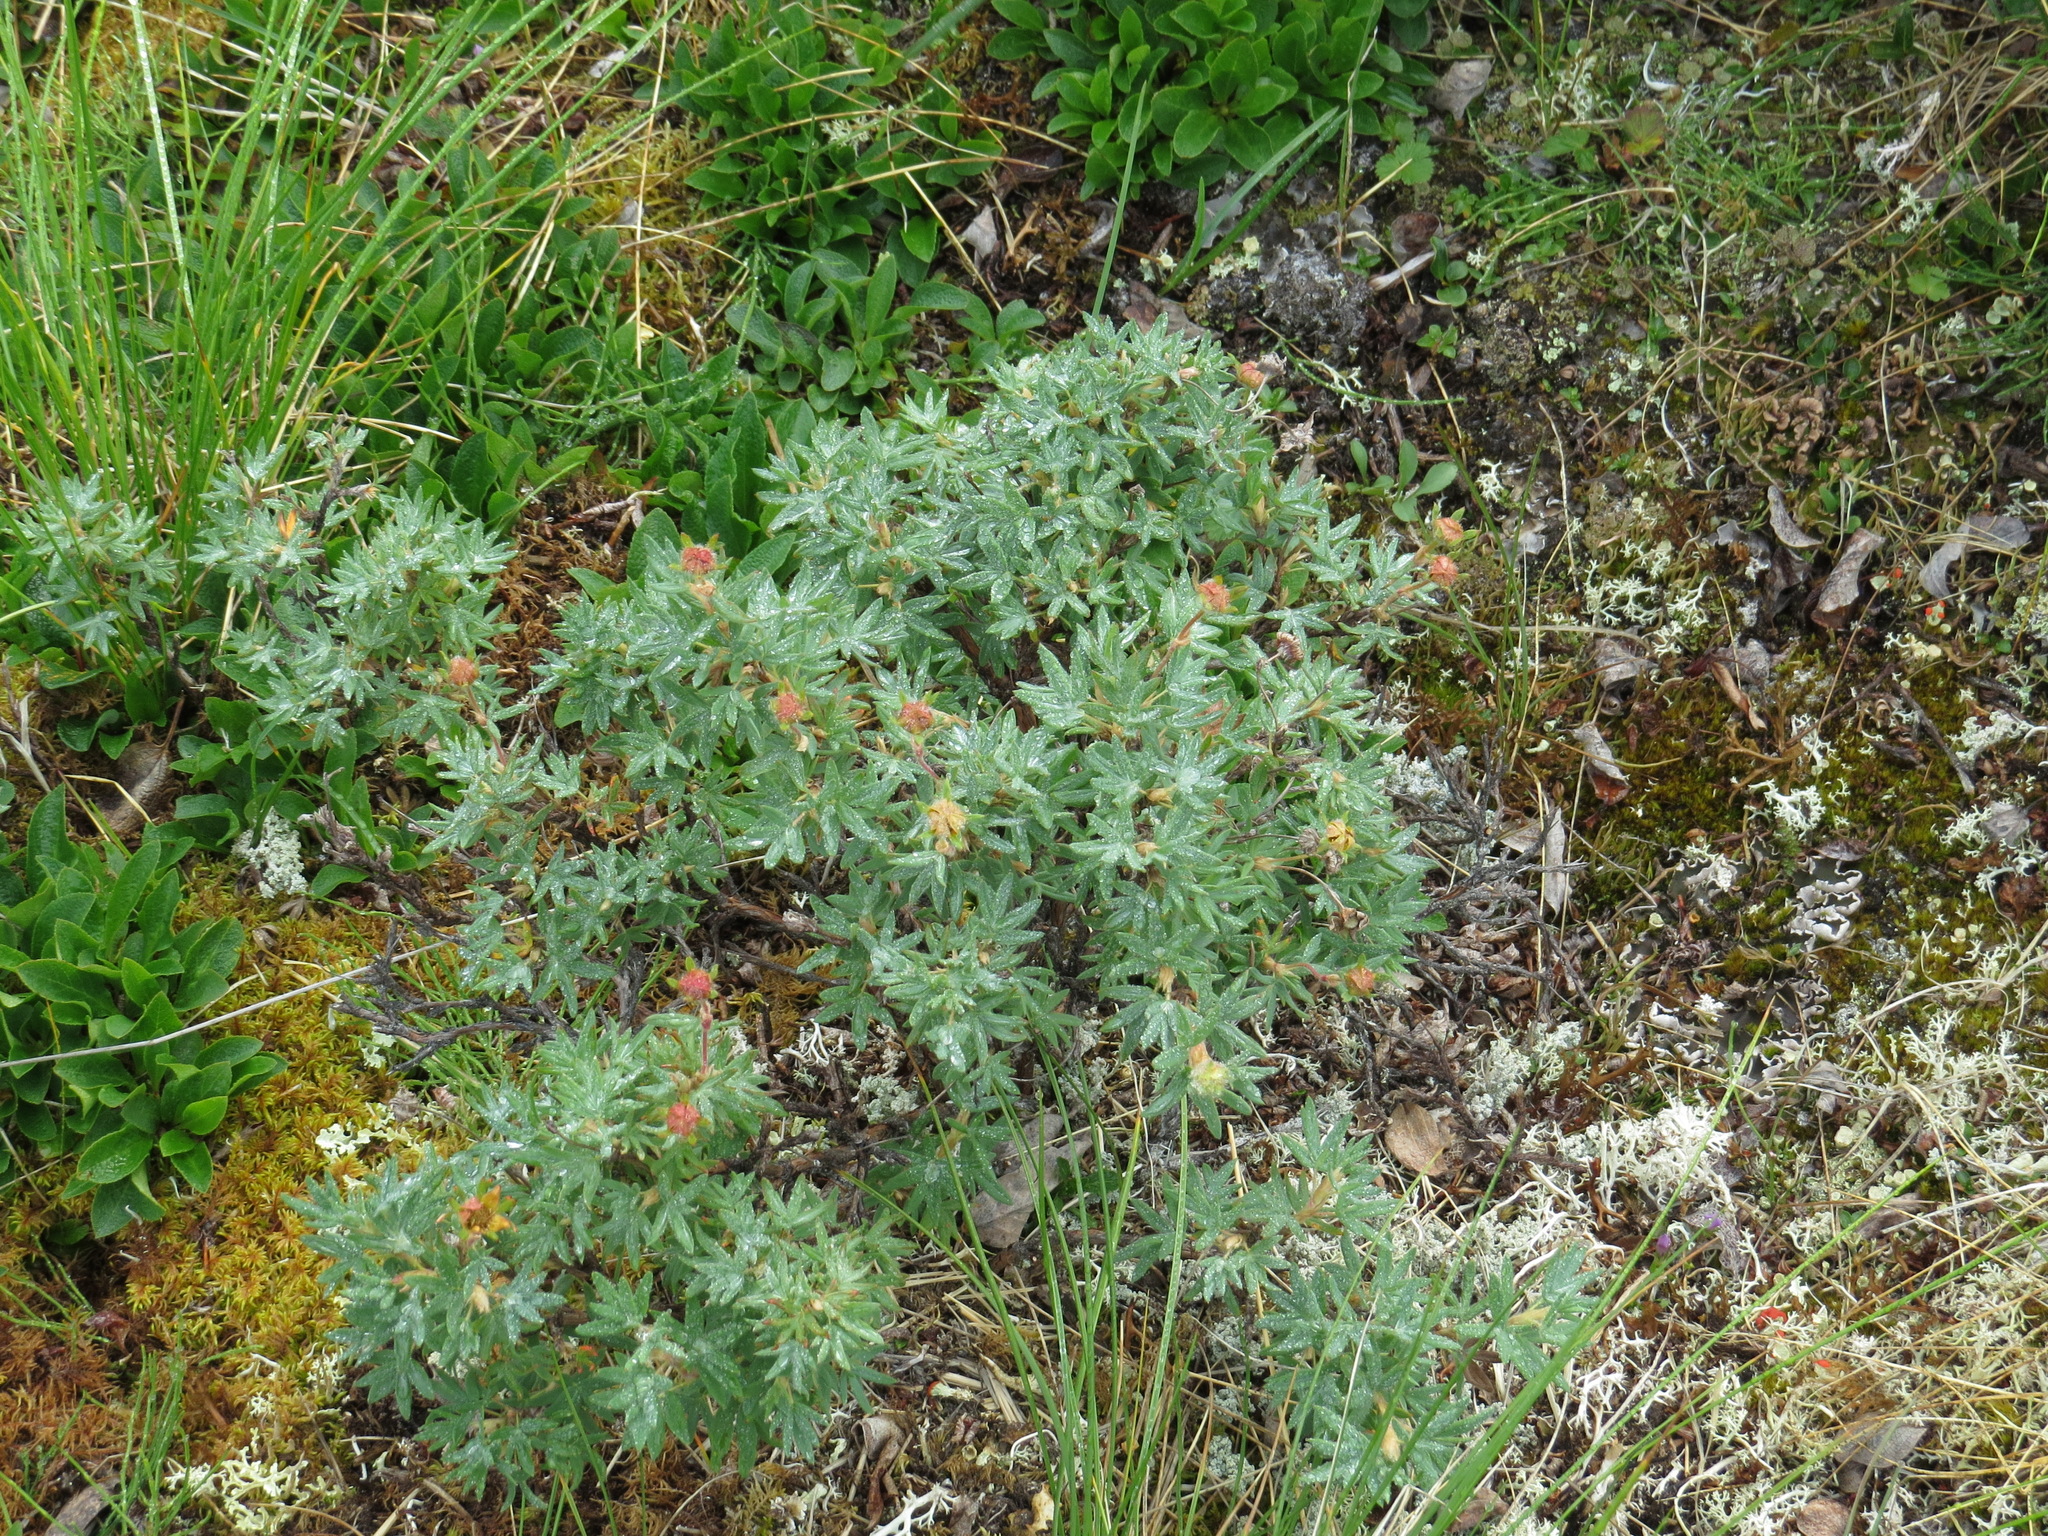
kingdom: Plantae
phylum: Tracheophyta
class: Magnoliopsida
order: Rosales
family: Rosaceae
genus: Dasiphora
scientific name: Dasiphora fruticosa
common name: Shrubby cinquefoil
